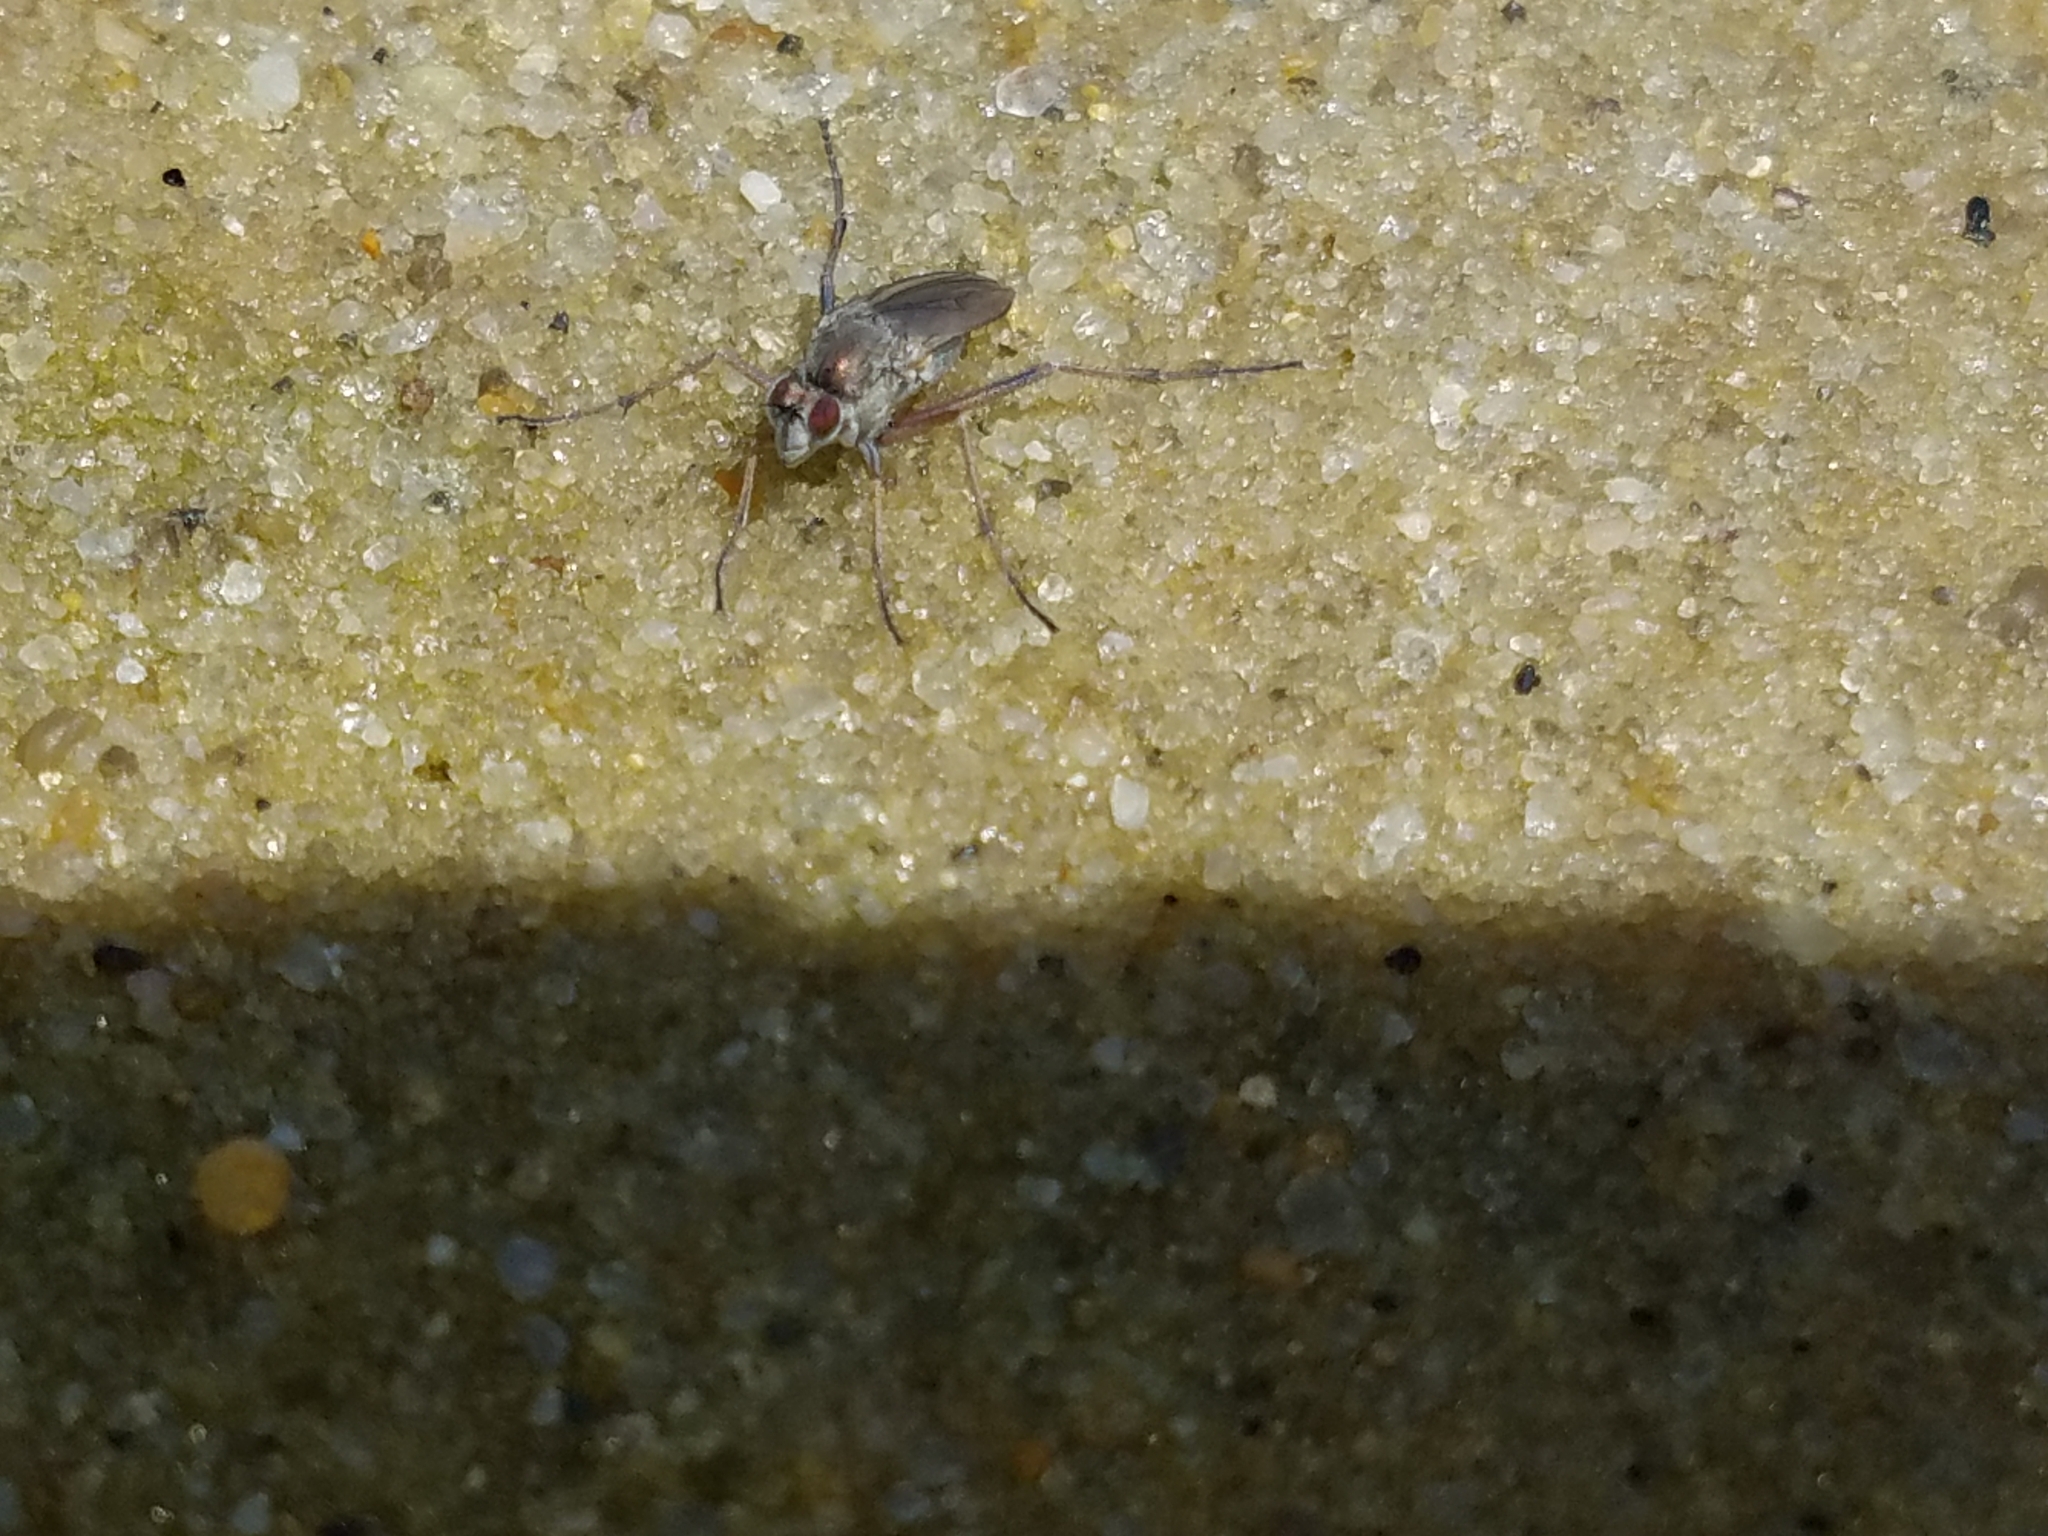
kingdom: Animalia
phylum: Arthropoda
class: Insecta
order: Diptera
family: Dolichopodidae
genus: Hypocharassus
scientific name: Hypocharassus pruinosus
